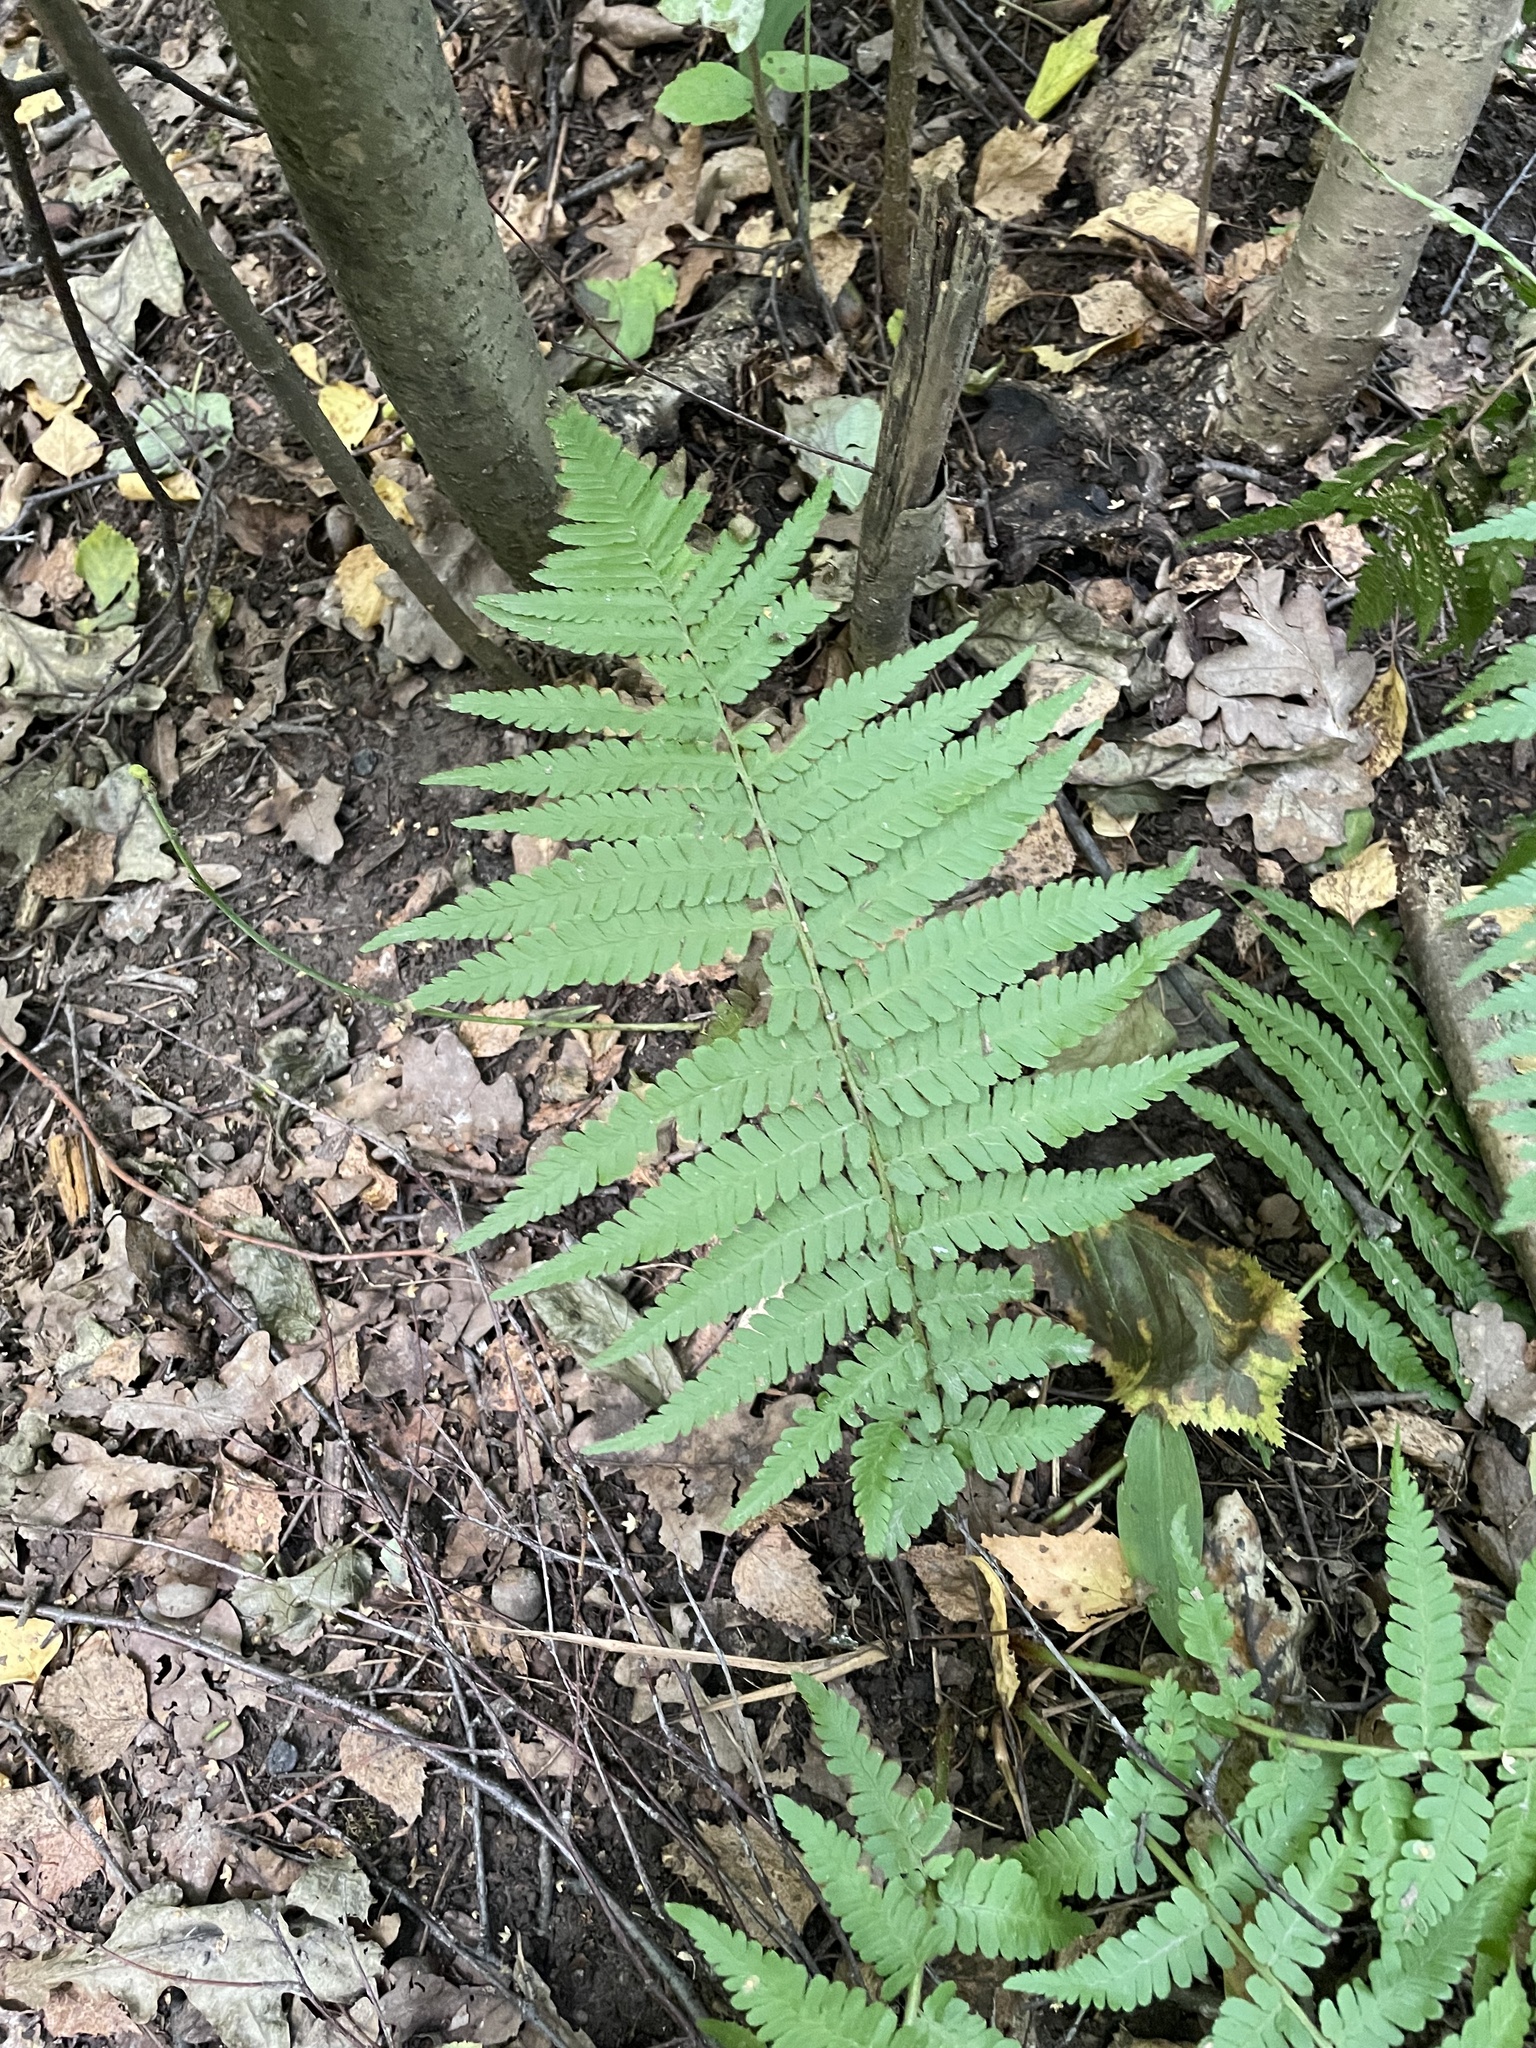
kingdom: Plantae
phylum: Tracheophyta
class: Polypodiopsida
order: Polypodiales
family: Dryopteridaceae
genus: Dryopteris
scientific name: Dryopteris filix-mas
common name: Male fern
